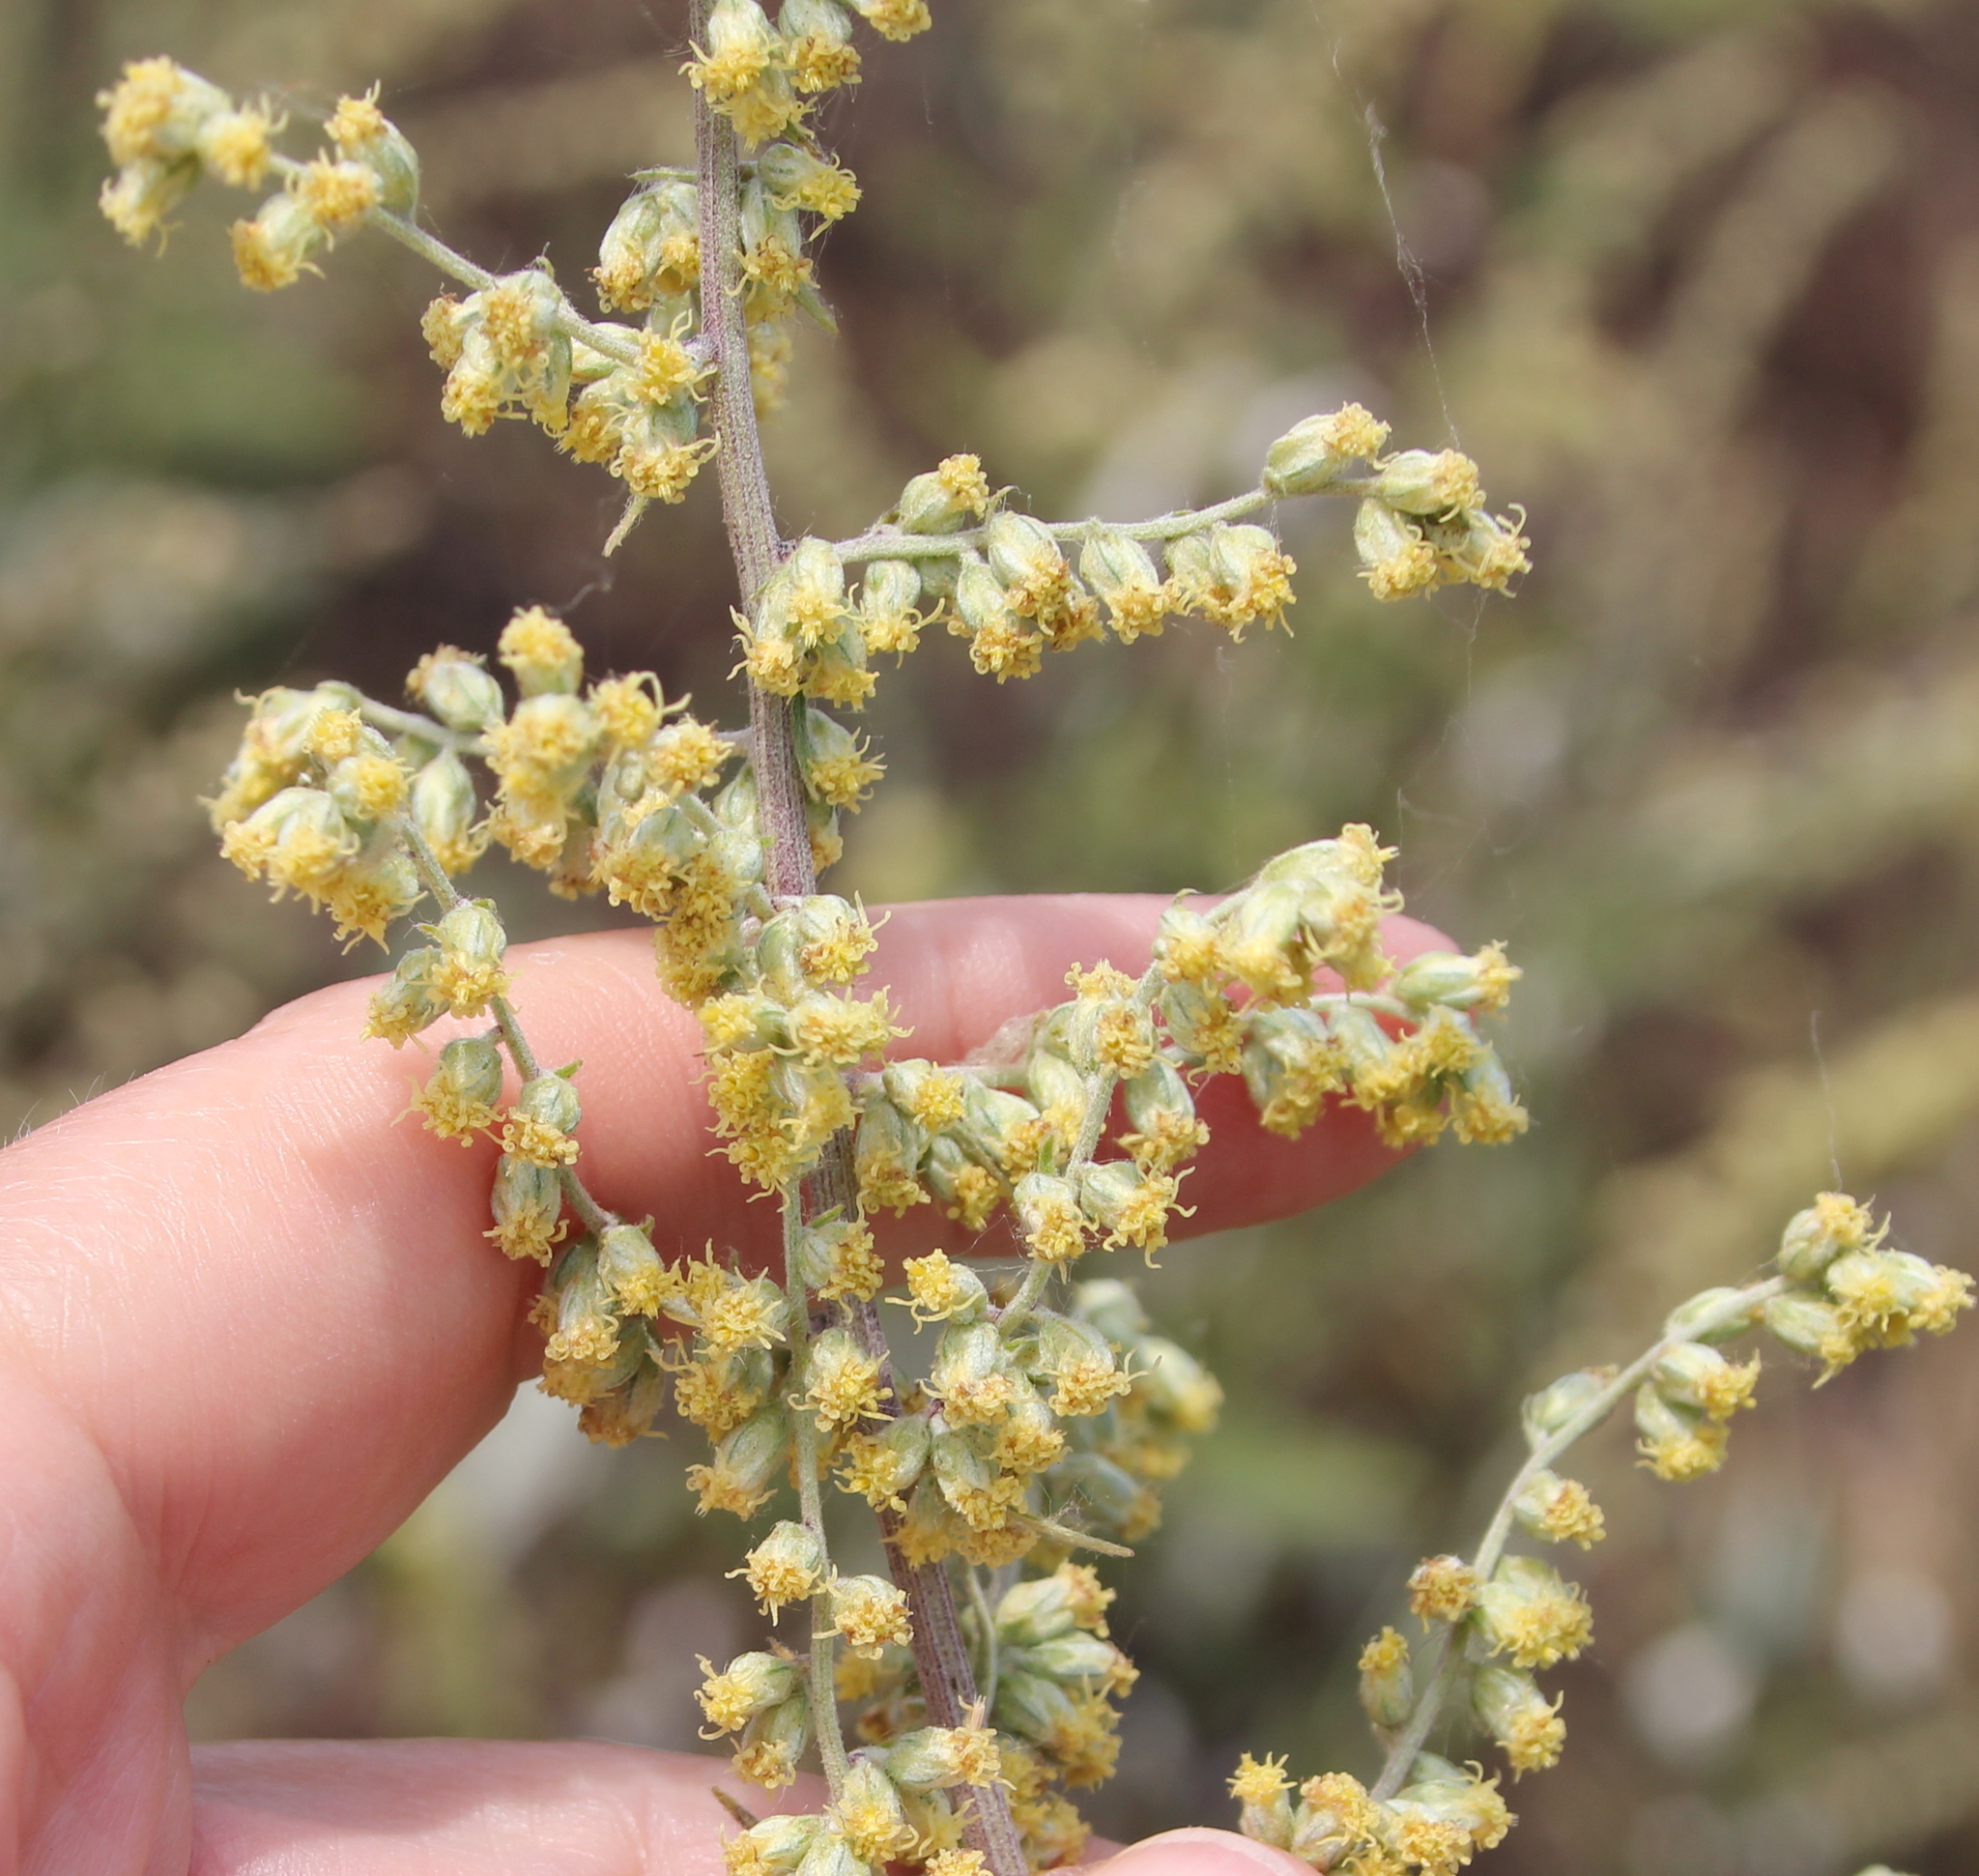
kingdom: Plantae
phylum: Tracheophyta
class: Magnoliopsida
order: Asterales
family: Asteraceae
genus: Artemisia
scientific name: Artemisia douglasiana
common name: Northwest mugwort
